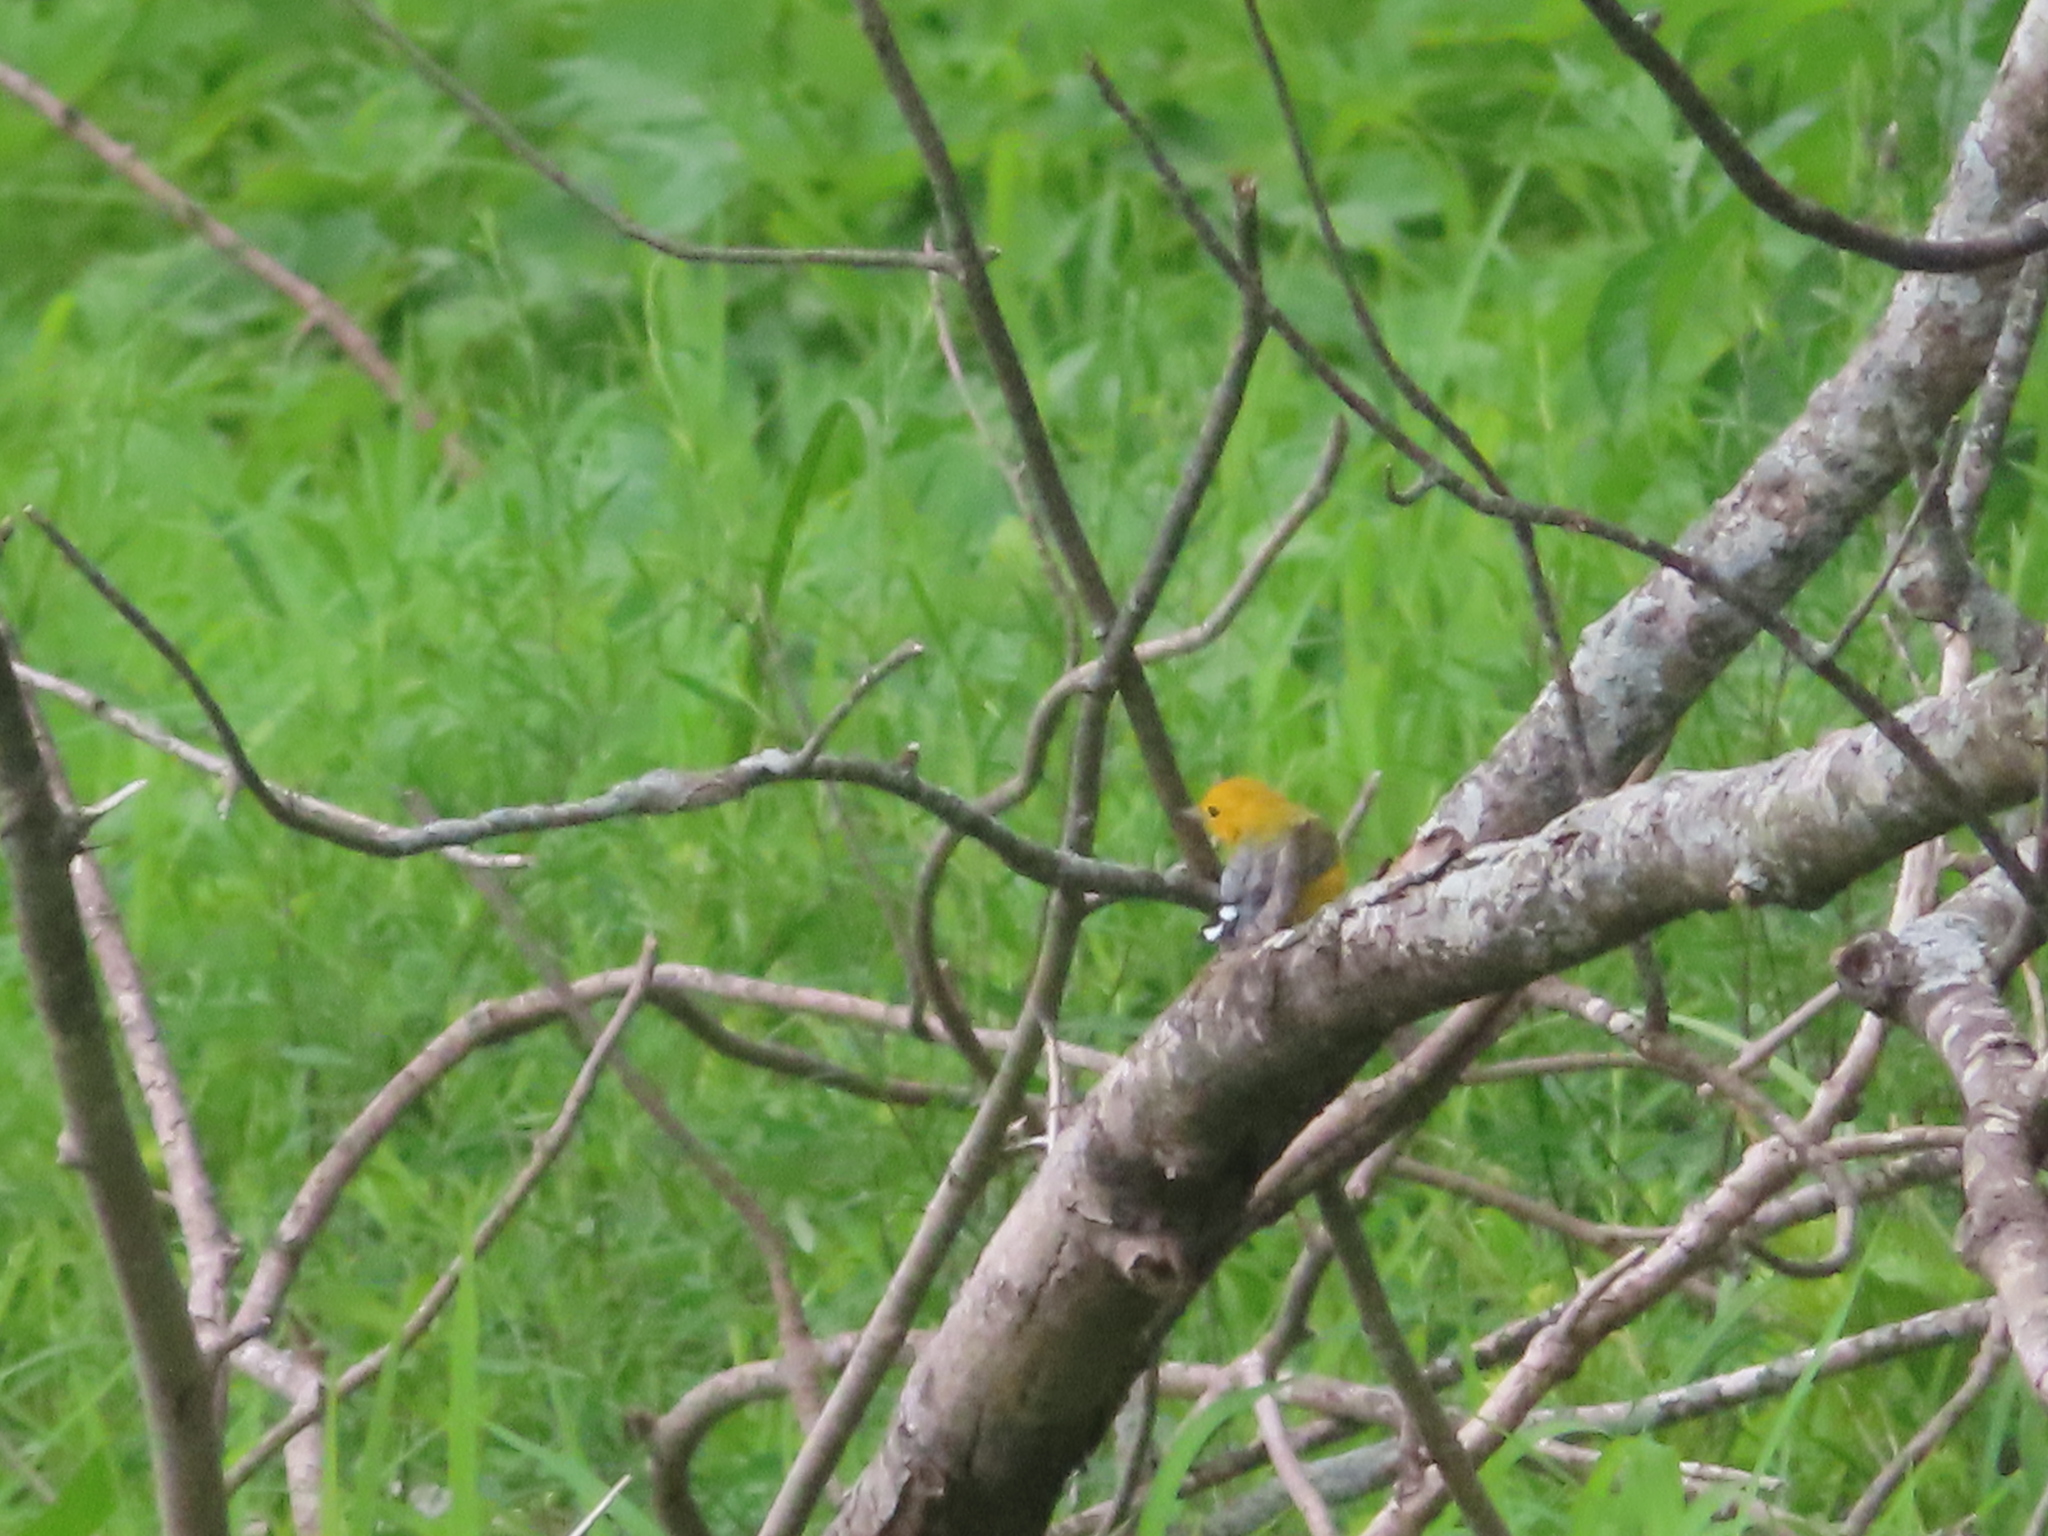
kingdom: Animalia
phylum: Chordata
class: Aves
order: Passeriformes
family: Parulidae
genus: Protonotaria
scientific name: Protonotaria citrea
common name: Prothonotary warbler
